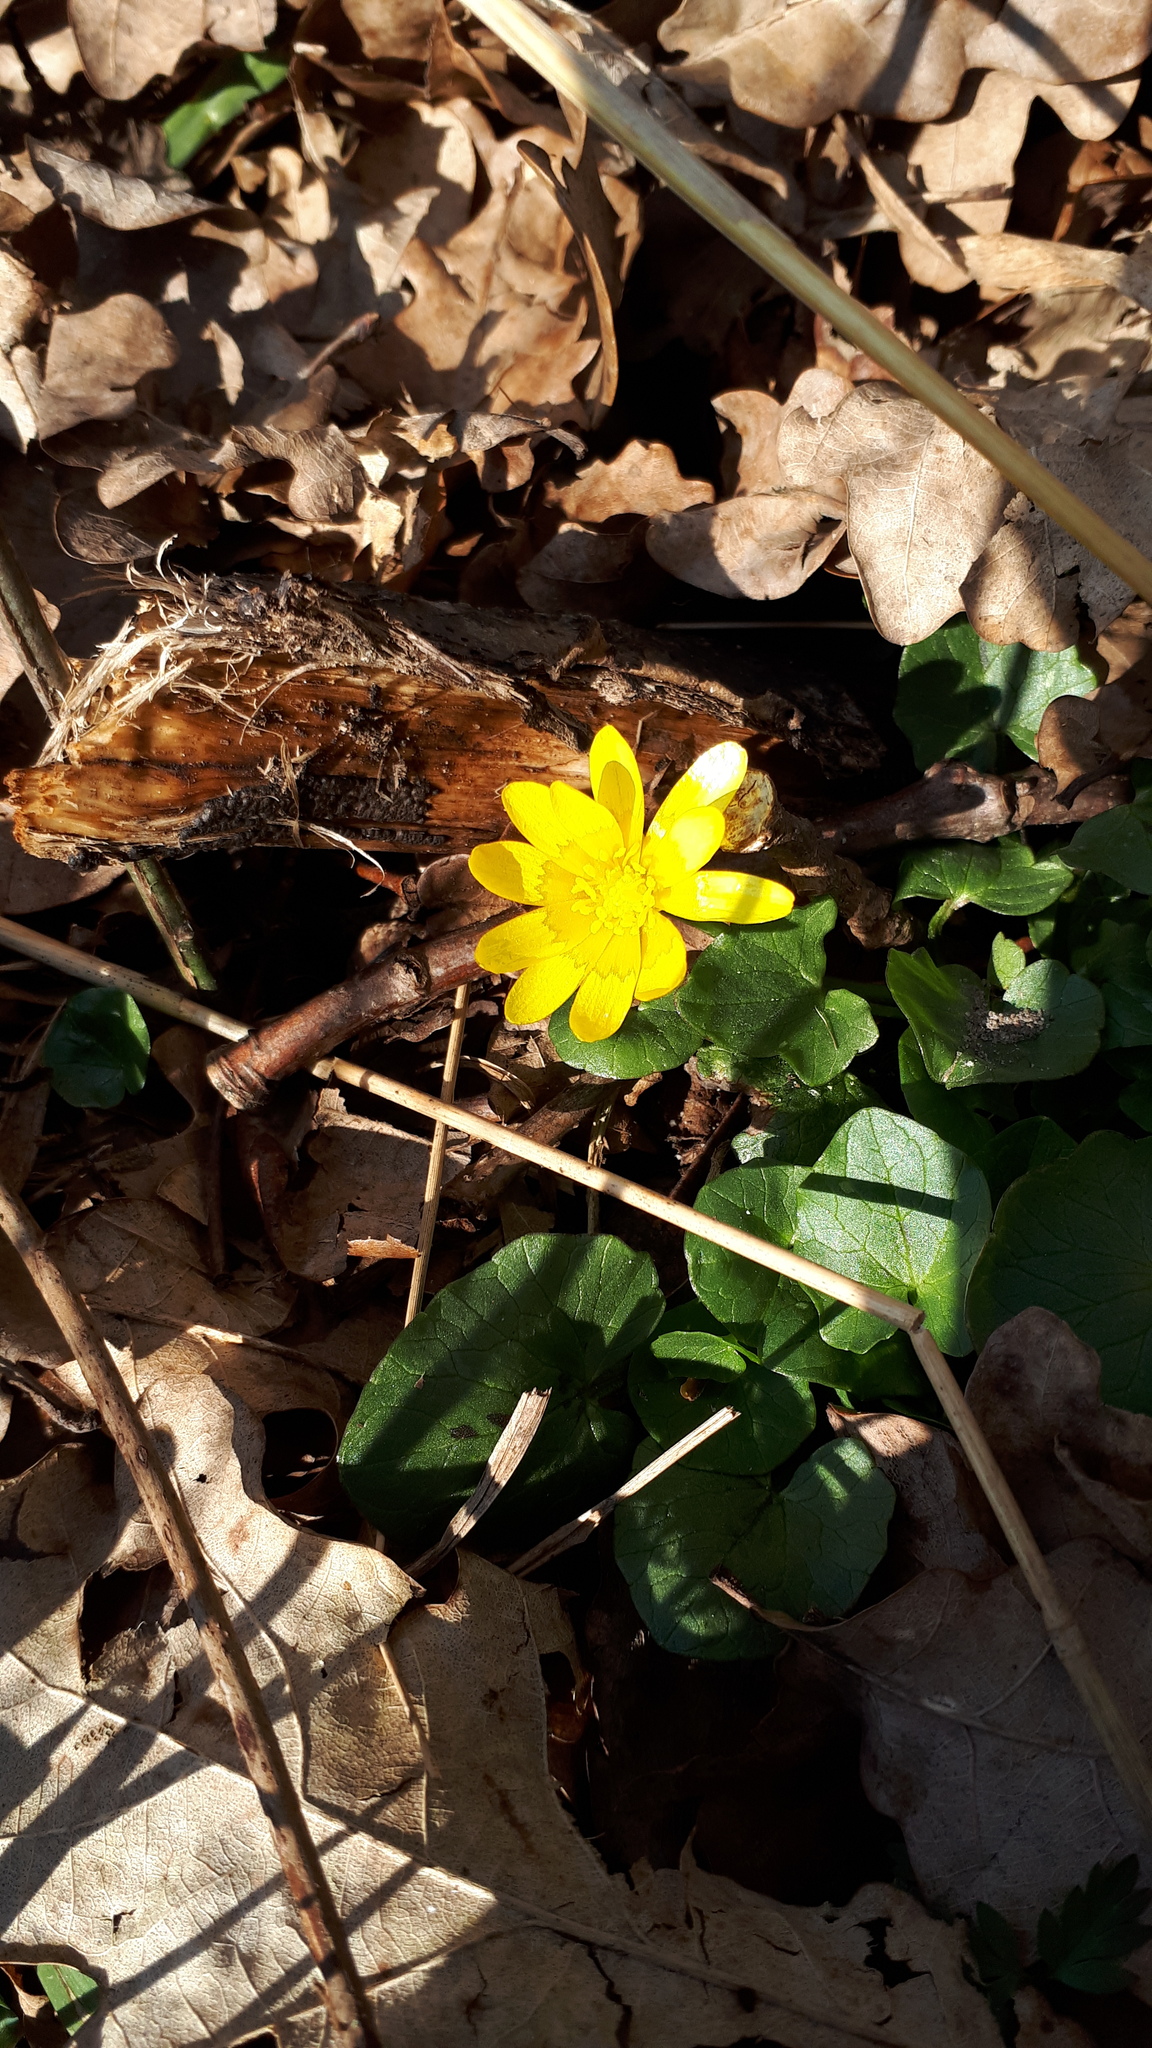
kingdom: Plantae
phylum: Tracheophyta
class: Magnoliopsida
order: Ranunculales
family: Ranunculaceae
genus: Ficaria
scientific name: Ficaria verna
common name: Lesser celandine
